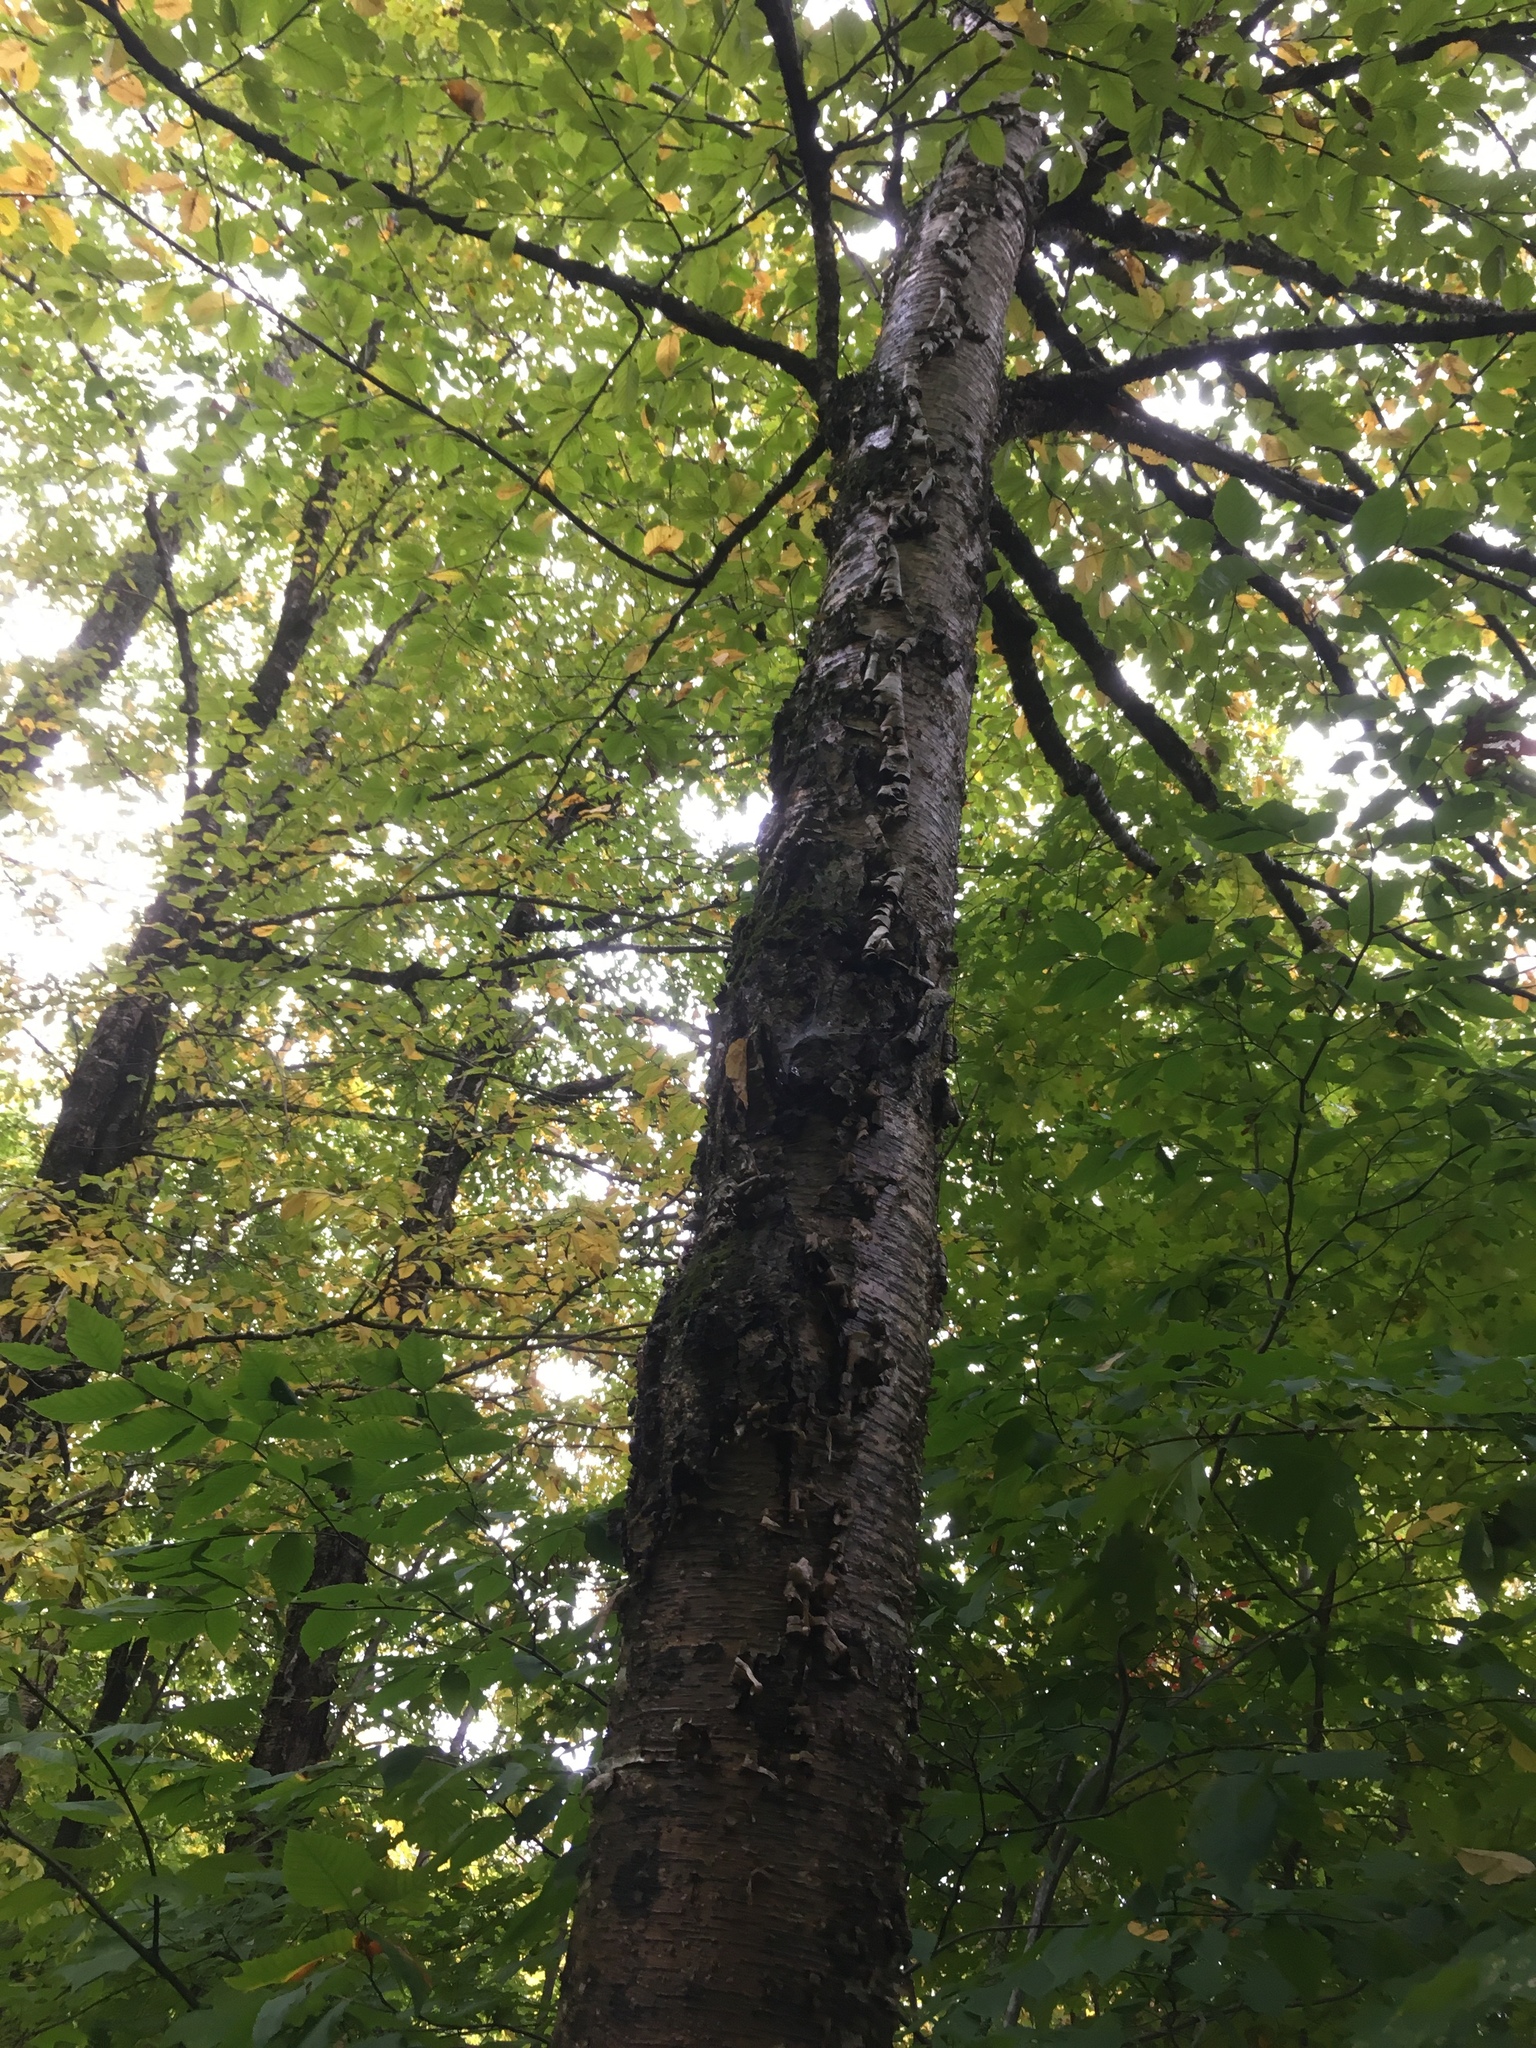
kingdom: Plantae
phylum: Tracheophyta
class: Magnoliopsida
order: Fagales
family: Betulaceae
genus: Betula
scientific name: Betula alleghaniensis
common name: Yellow birch
